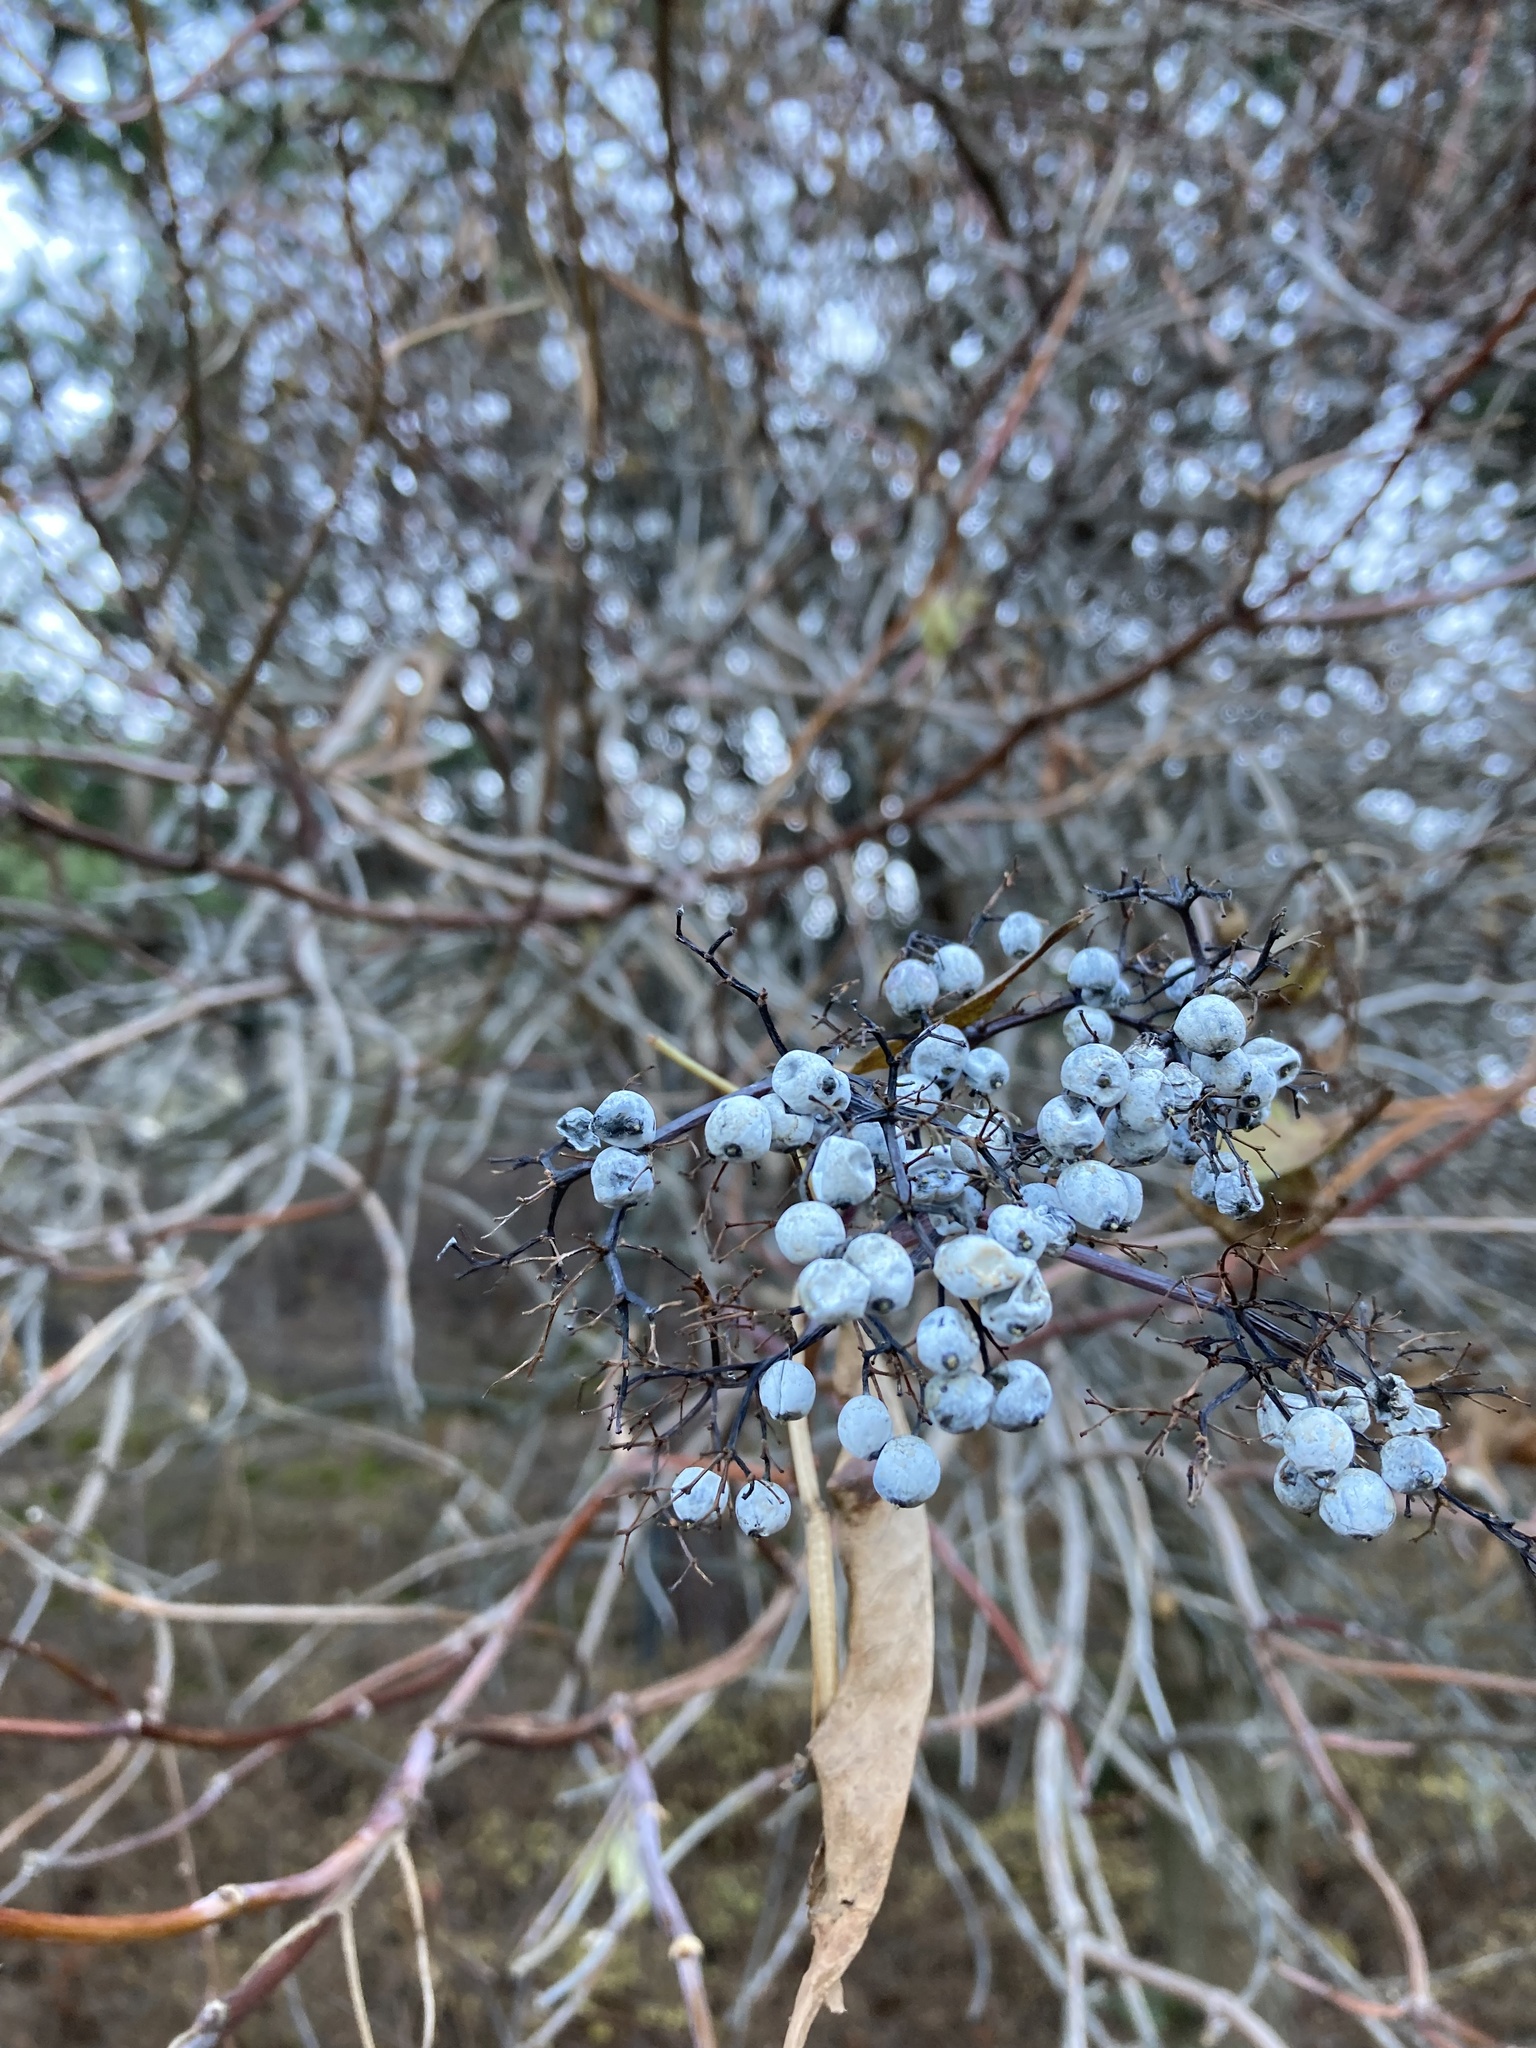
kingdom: Plantae
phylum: Tracheophyta
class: Magnoliopsida
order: Dipsacales
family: Viburnaceae
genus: Sambucus
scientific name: Sambucus cerulea
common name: Blue elder
